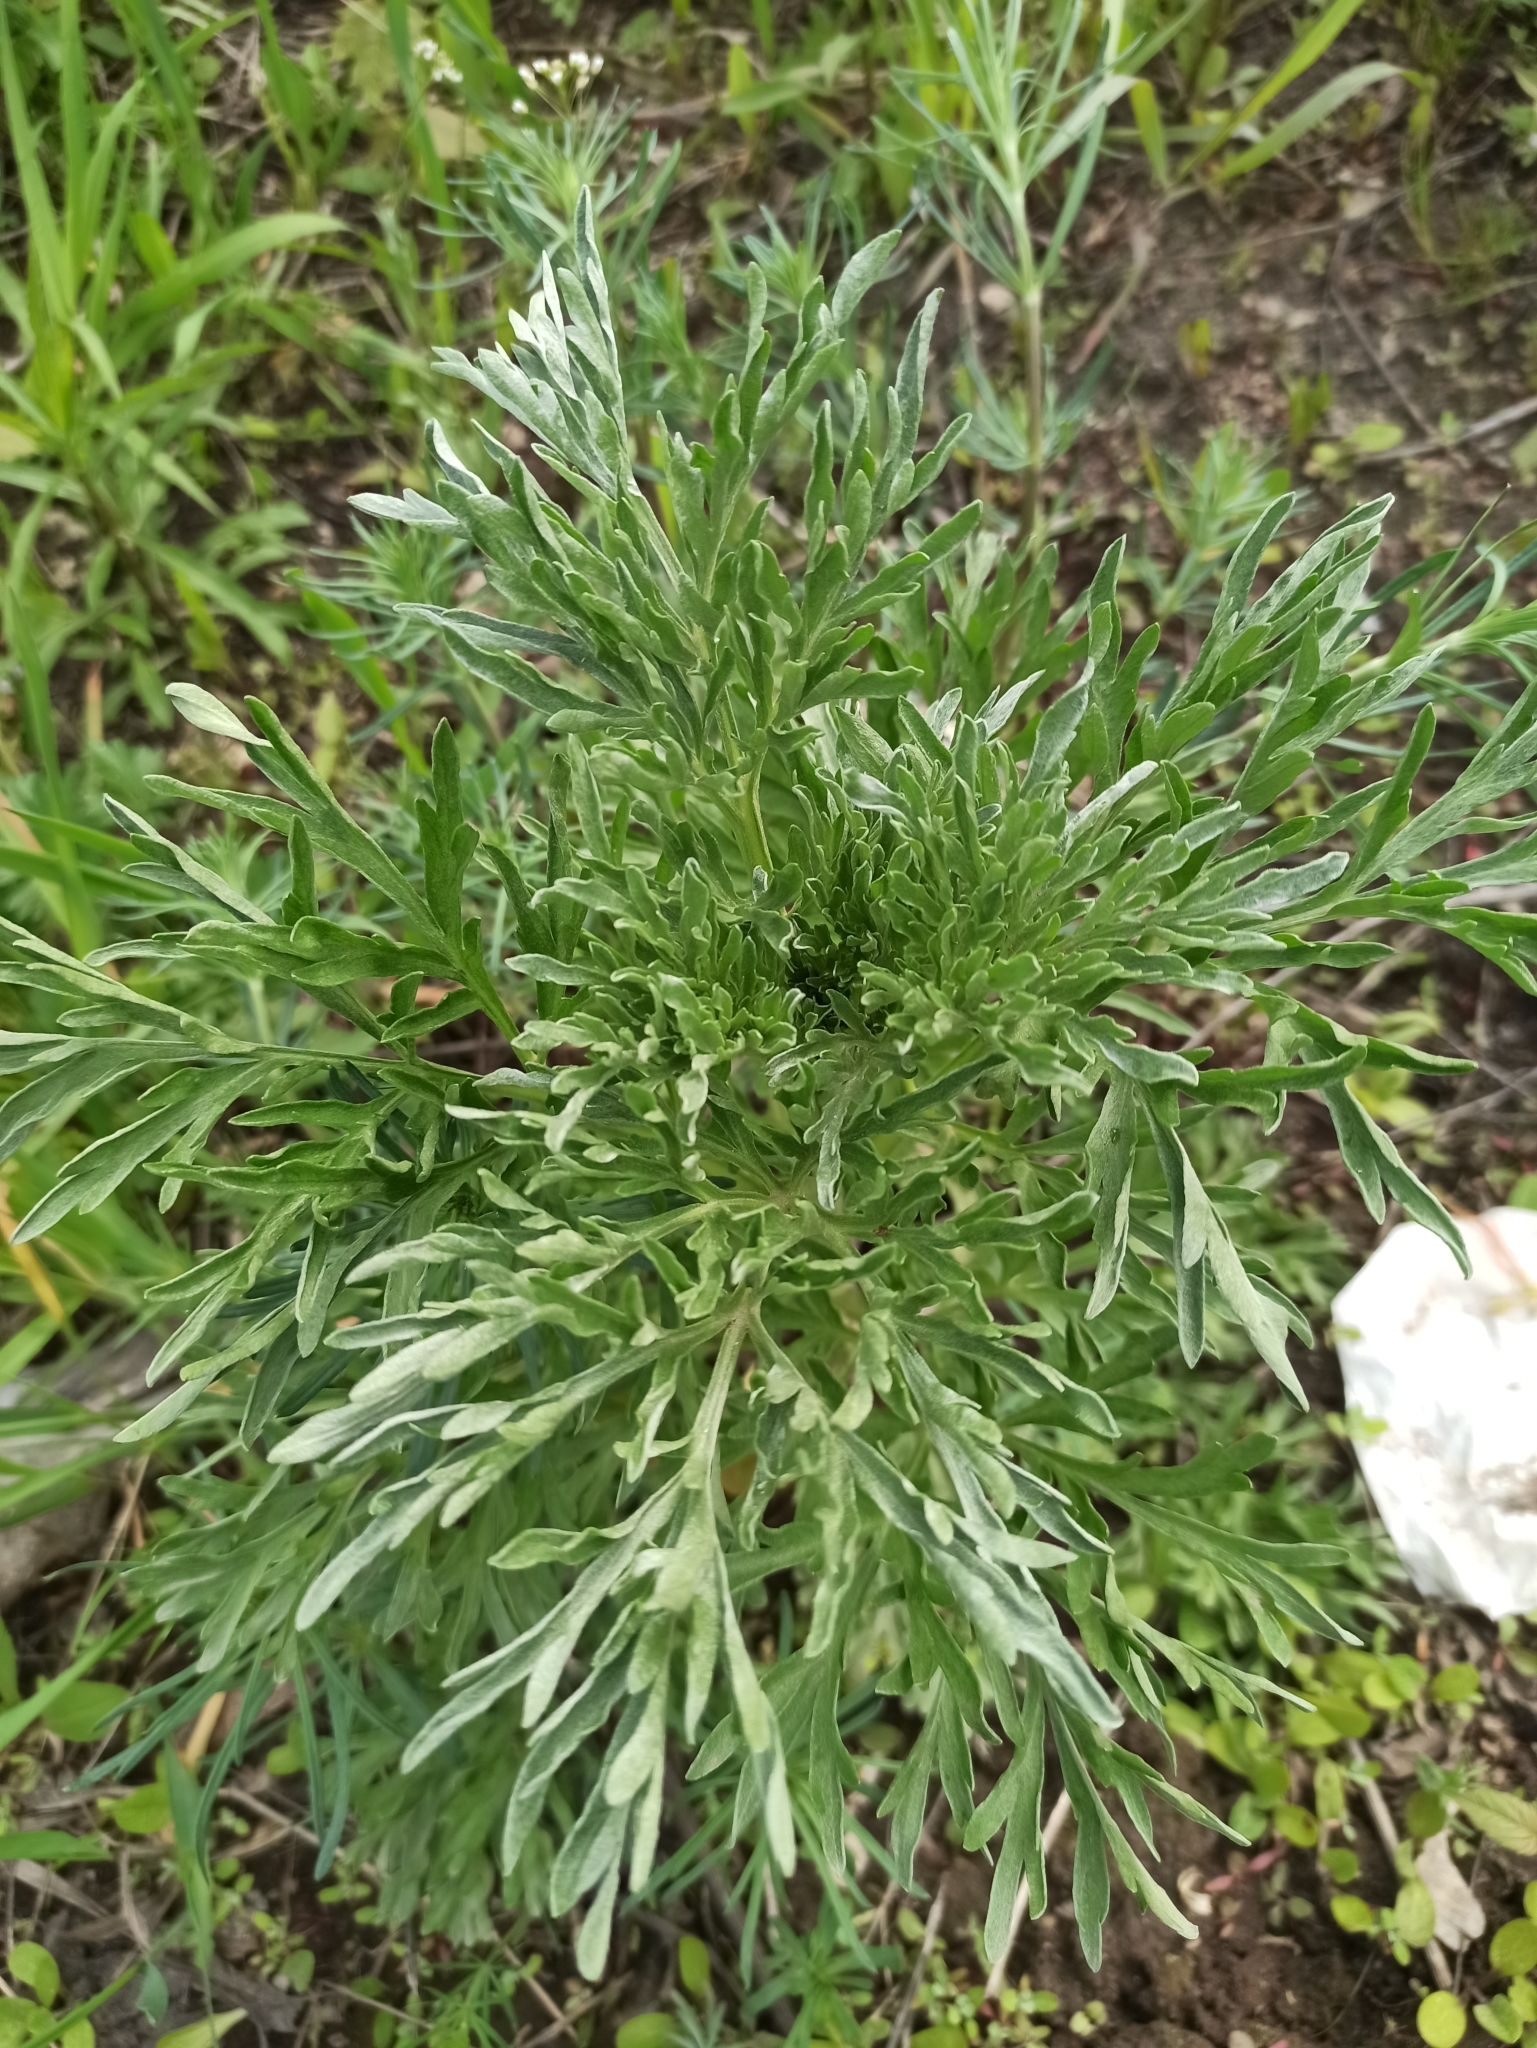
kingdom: Plantae
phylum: Tracheophyta
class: Magnoliopsida
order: Asterales
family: Asteraceae
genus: Artemisia
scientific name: Artemisia absinthium
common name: Wormwood
